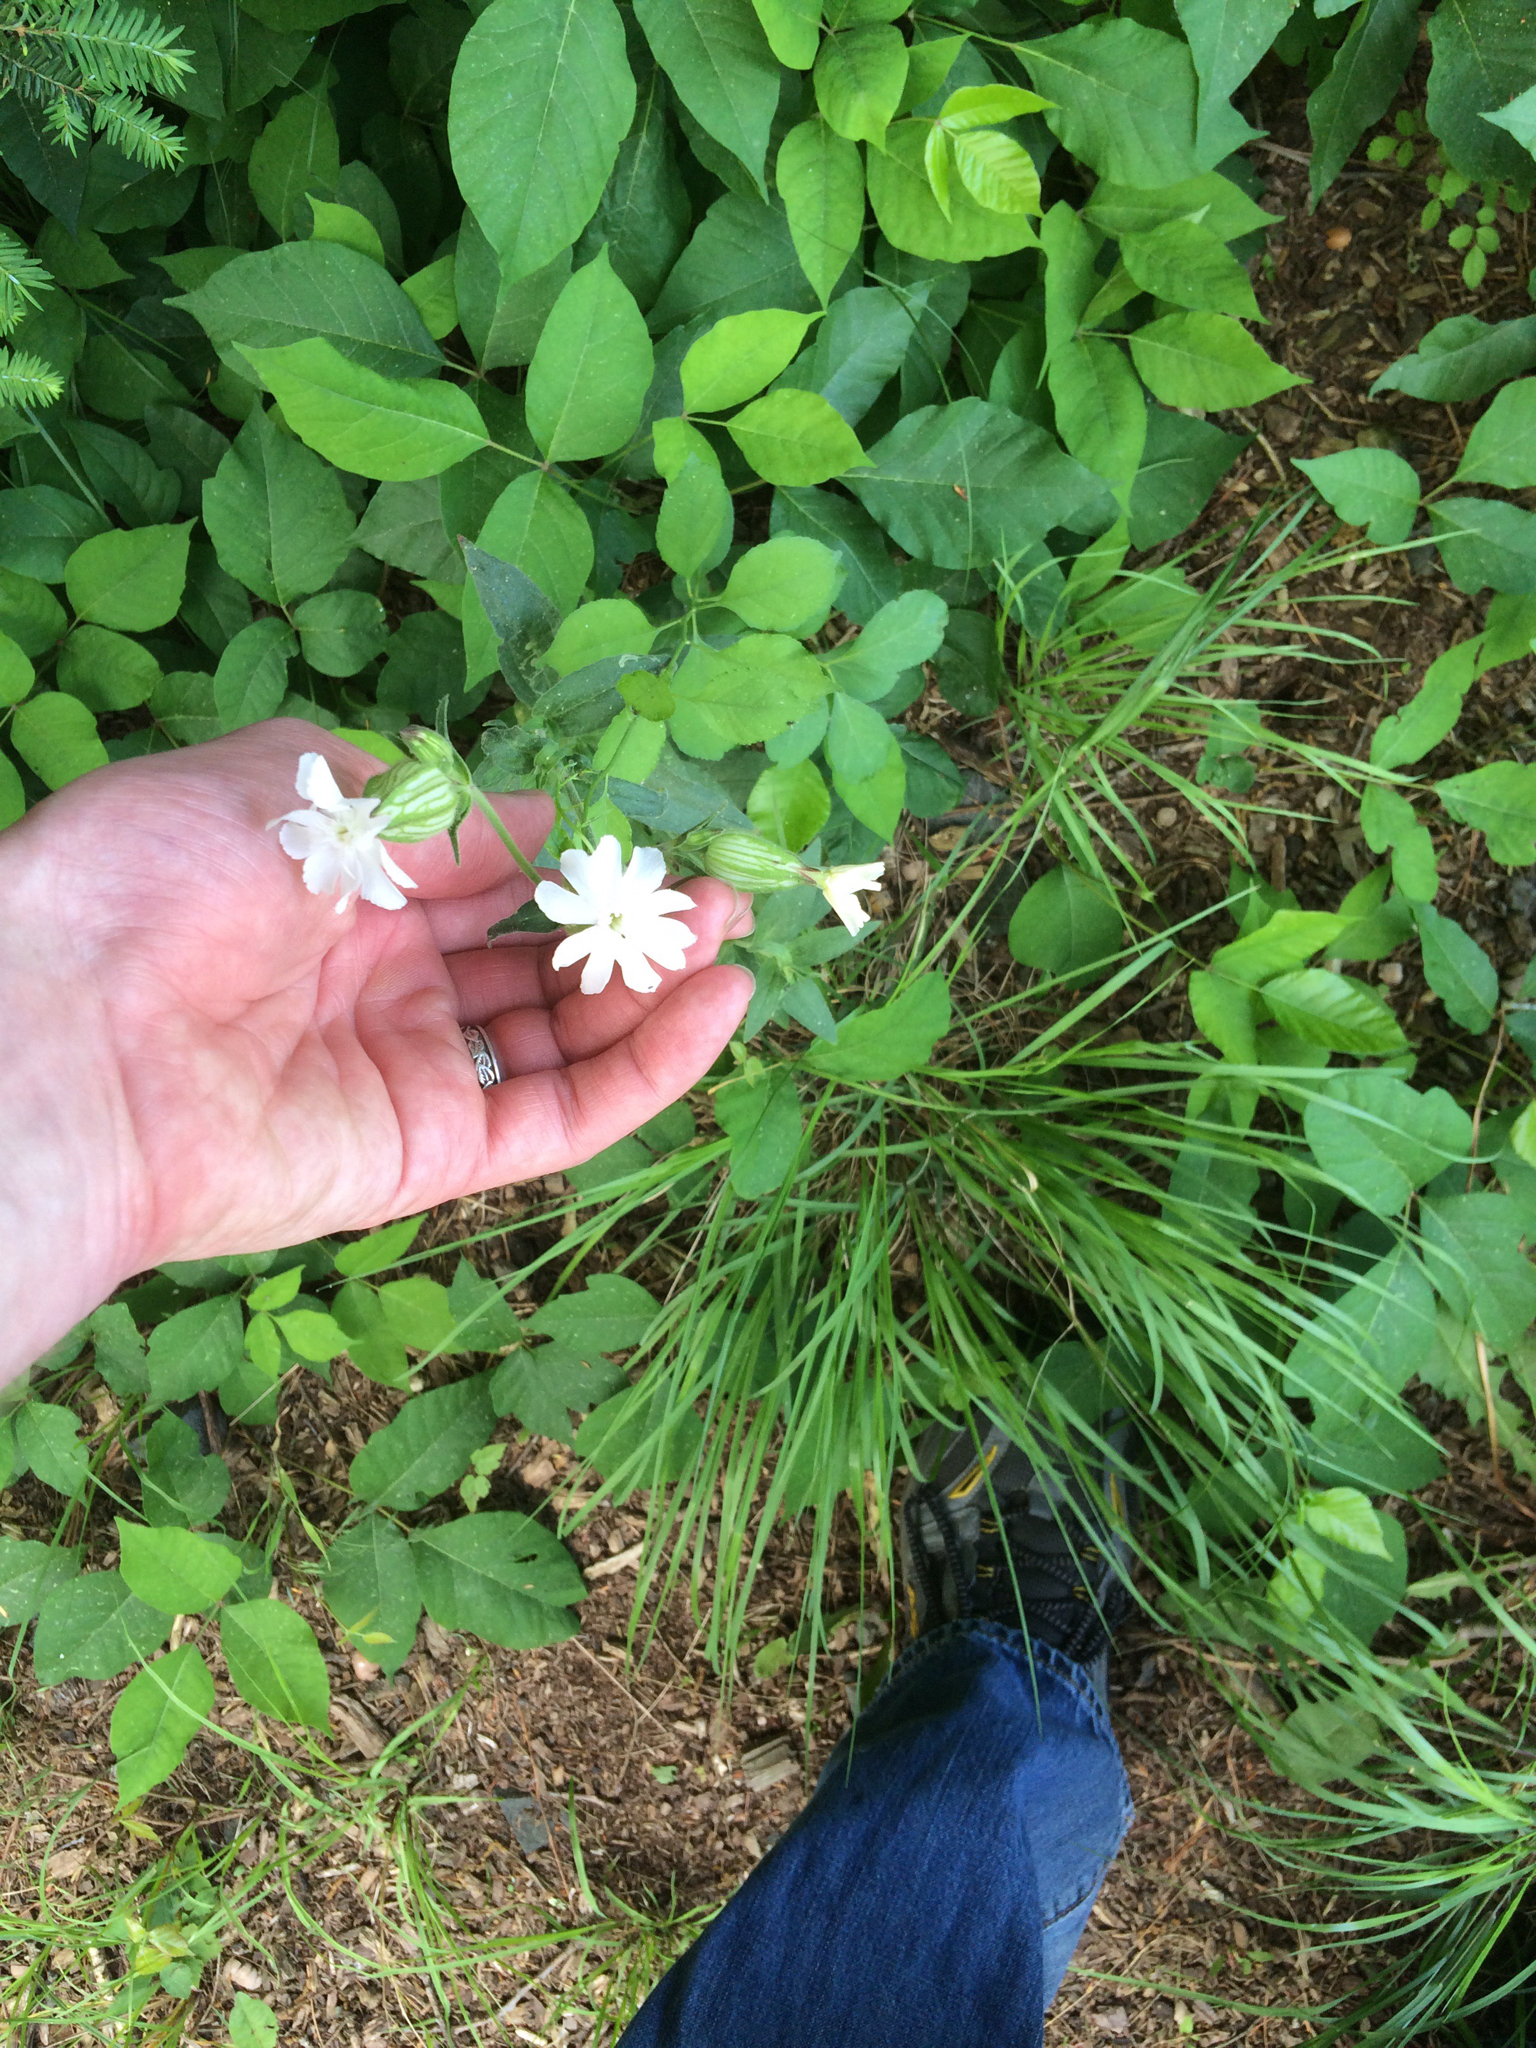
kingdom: Plantae
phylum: Tracheophyta
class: Magnoliopsida
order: Caryophyllales
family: Caryophyllaceae
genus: Silene
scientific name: Silene latifolia
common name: White campion
